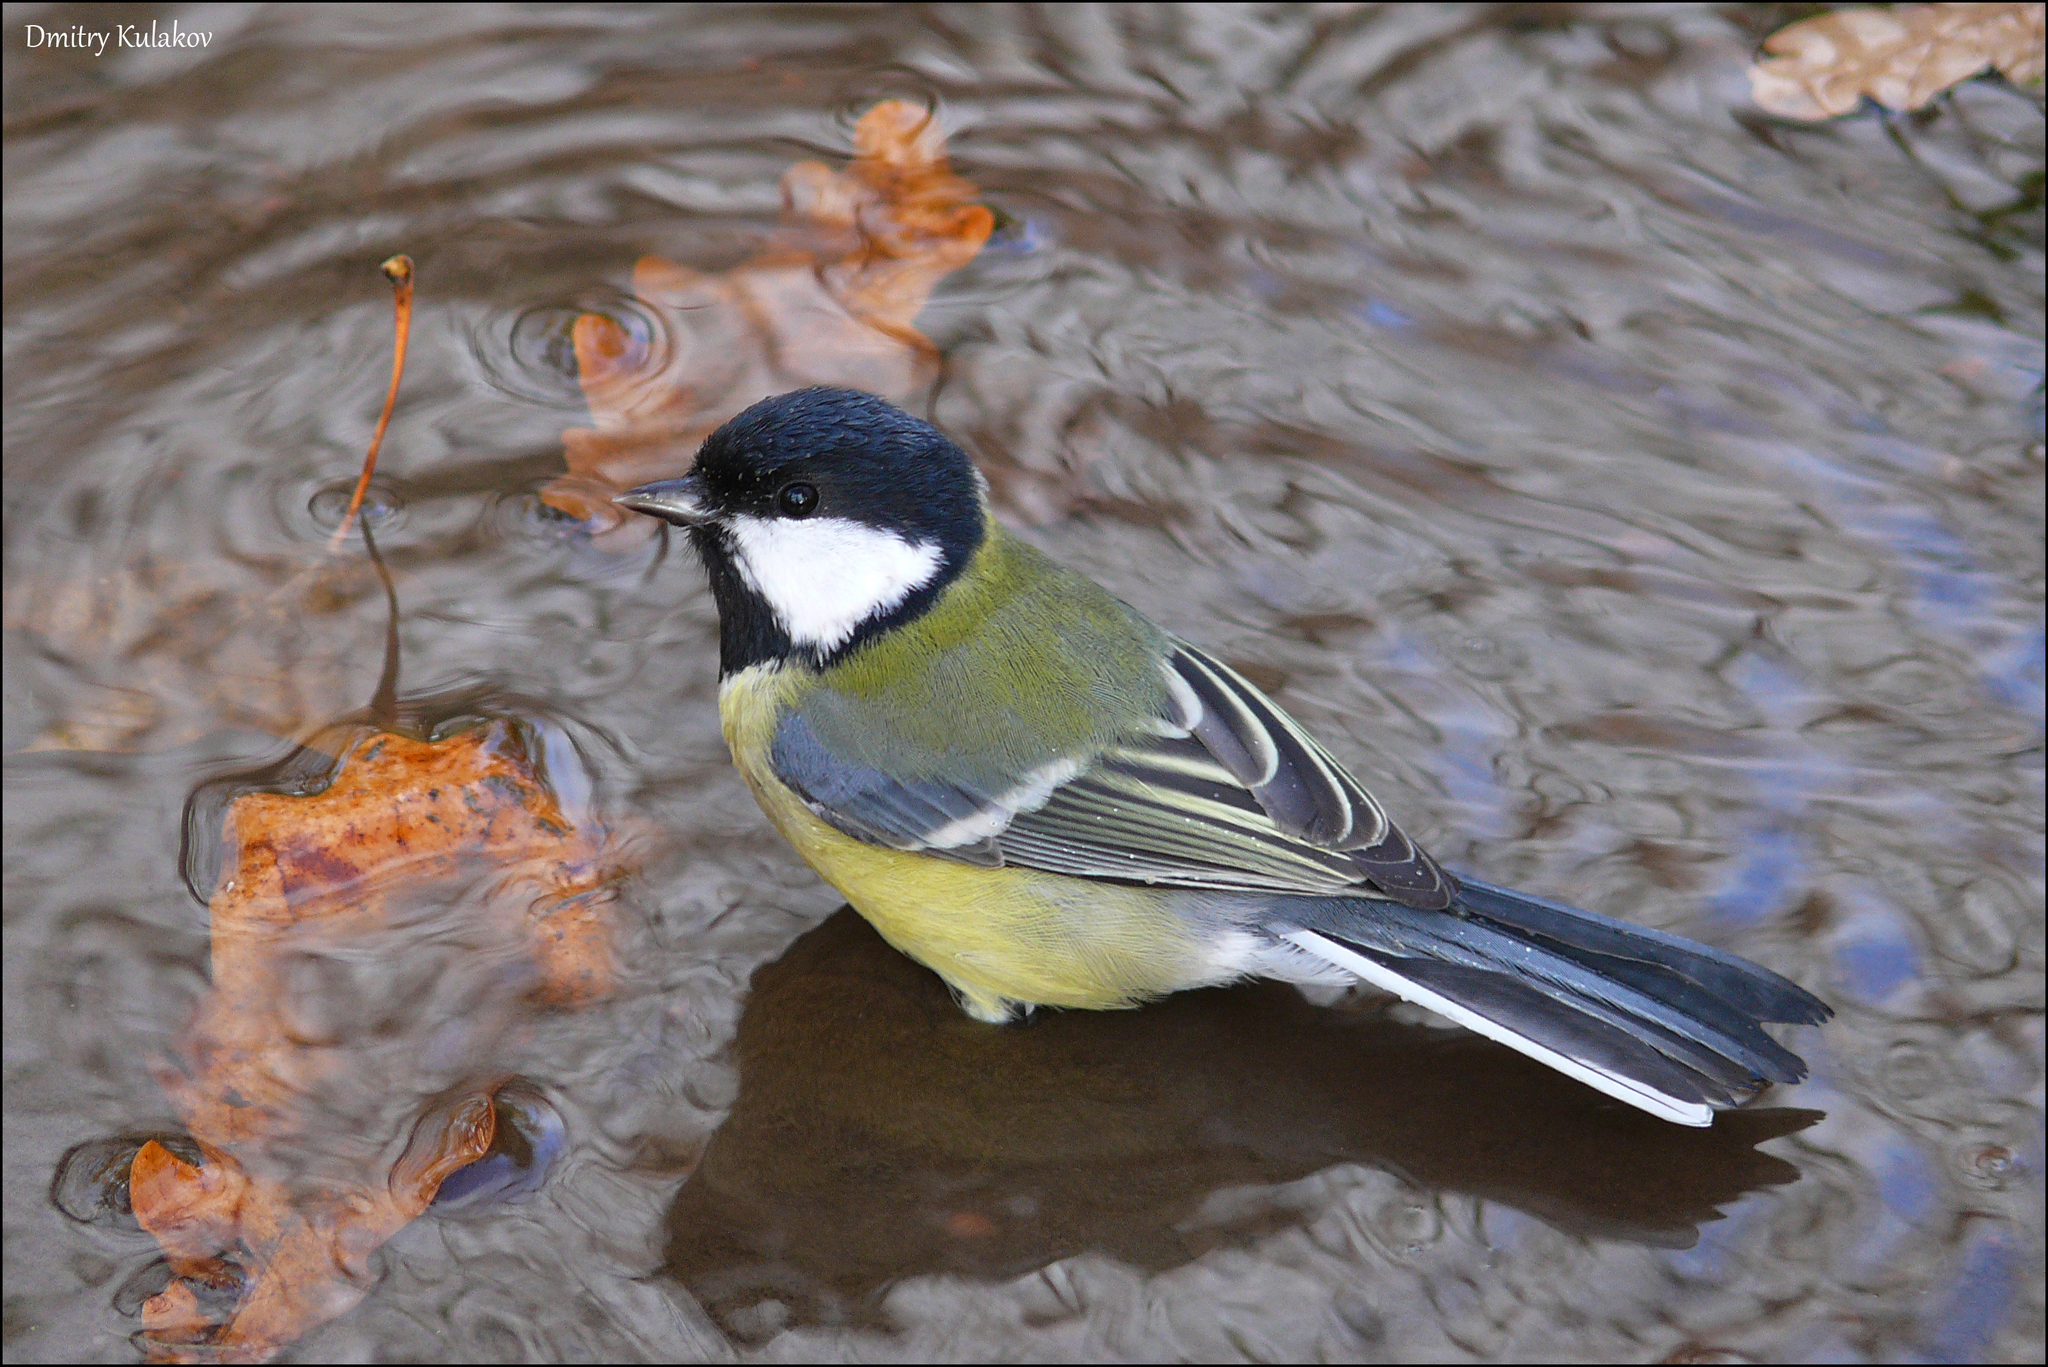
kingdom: Animalia
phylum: Chordata
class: Aves
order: Passeriformes
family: Paridae
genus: Parus
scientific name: Parus major
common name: Great tit
